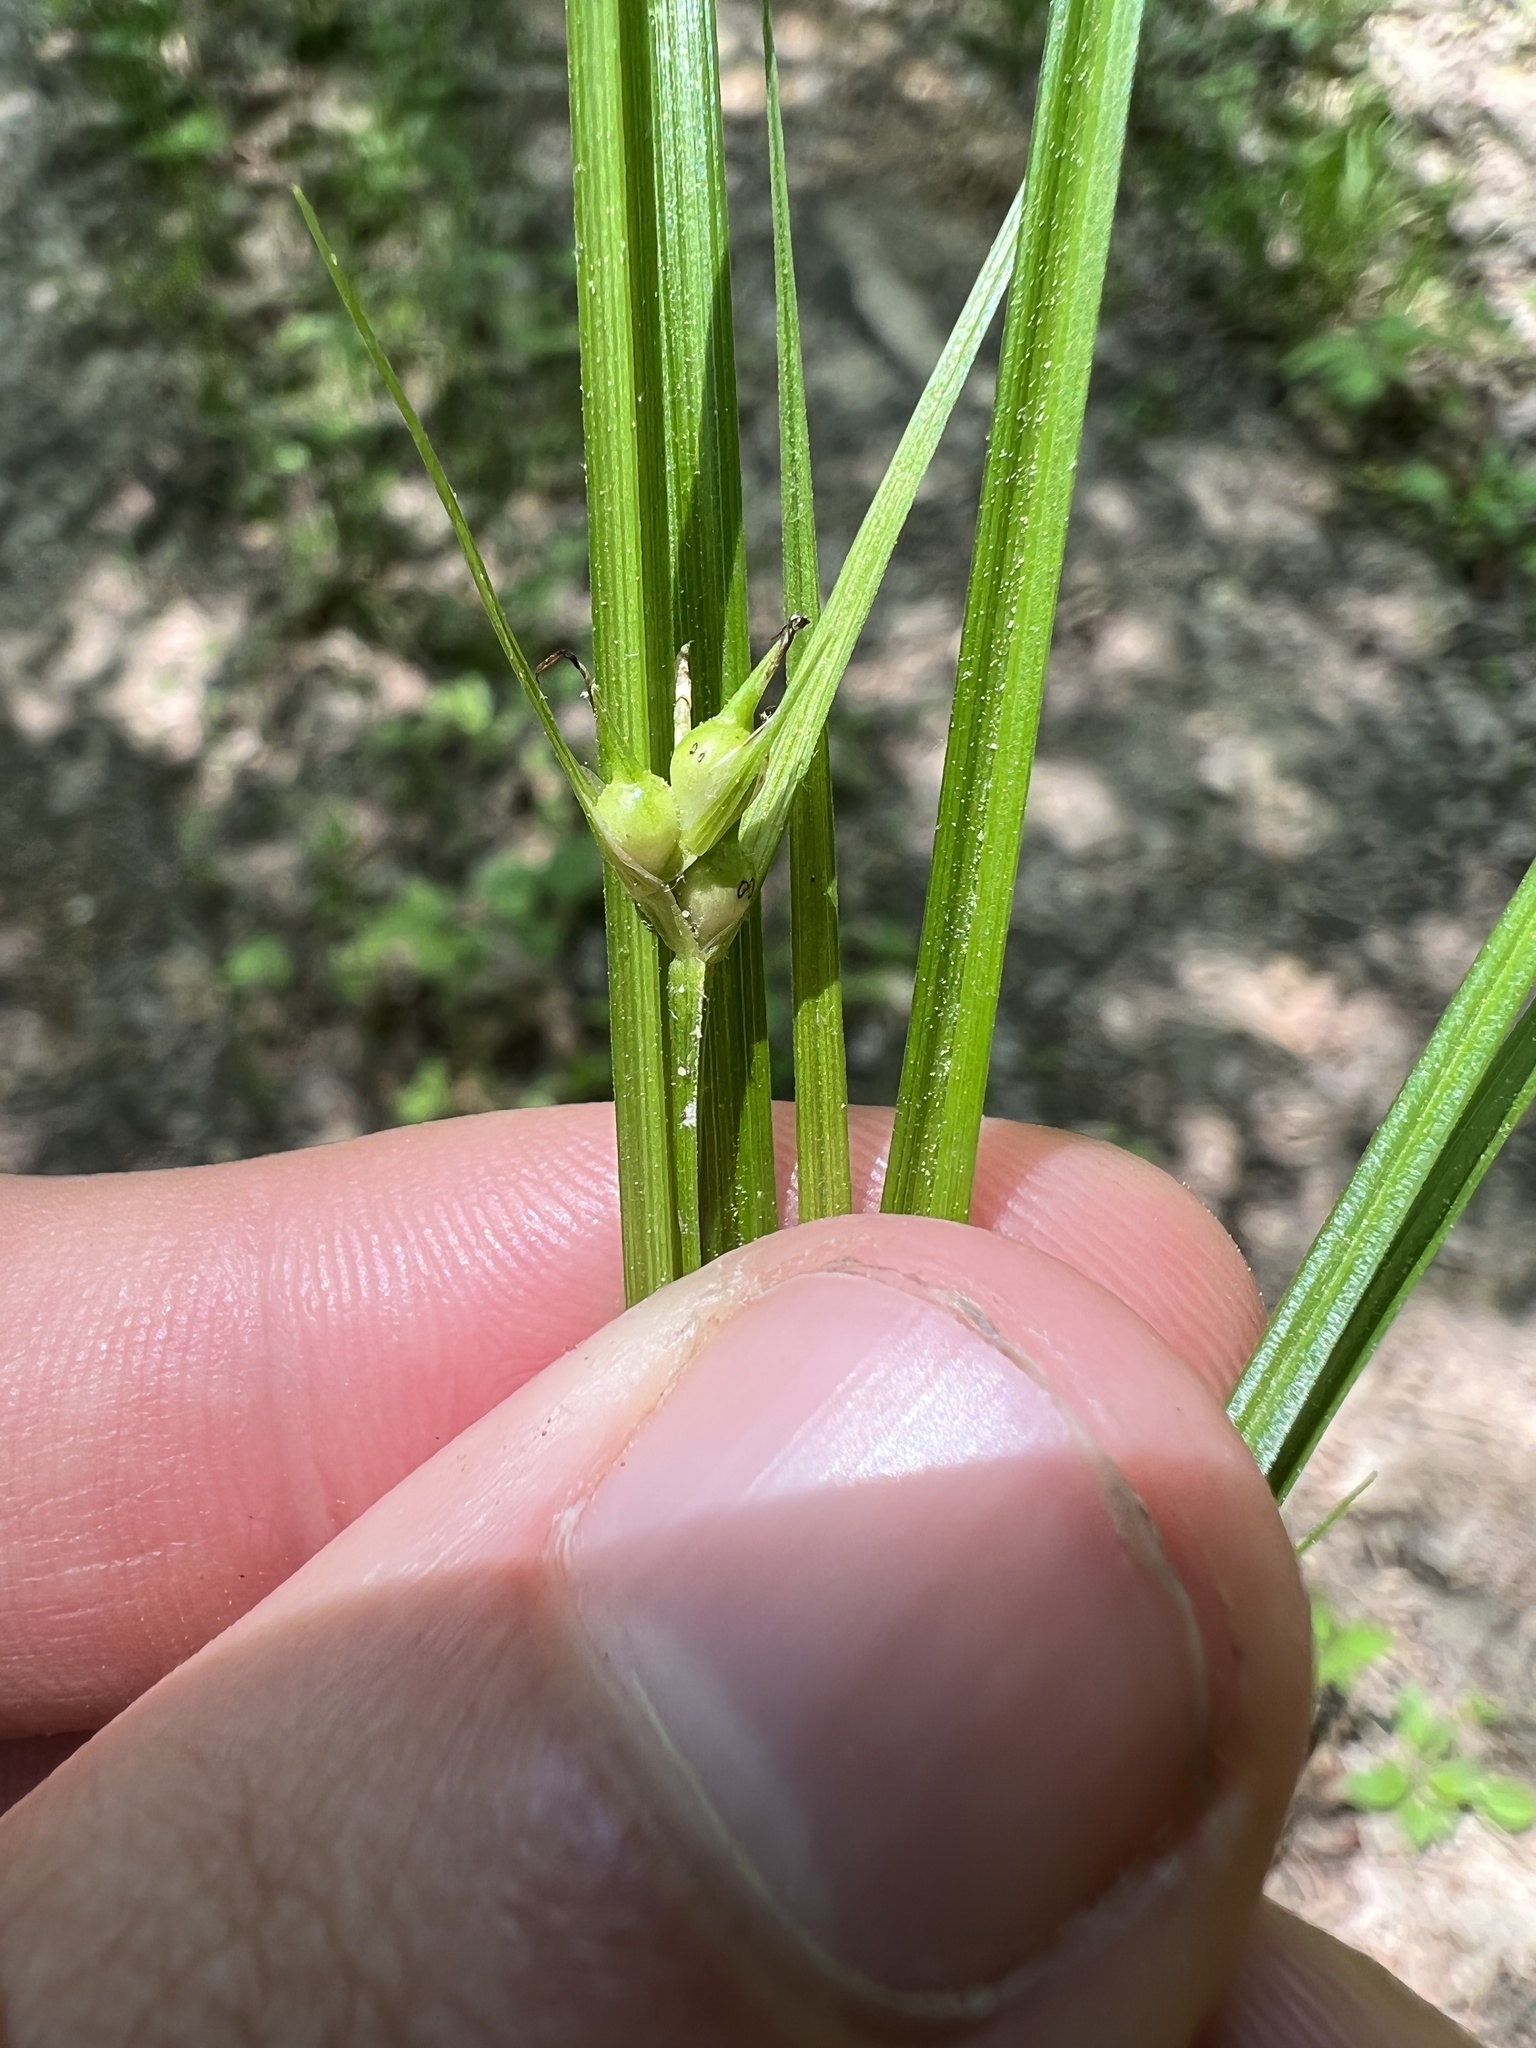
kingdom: Plantae
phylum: Tracheophyta
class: Liliopsida
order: Poales
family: Cyperaceae
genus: Carex
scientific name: Carex jamesii
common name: Grass sedge
